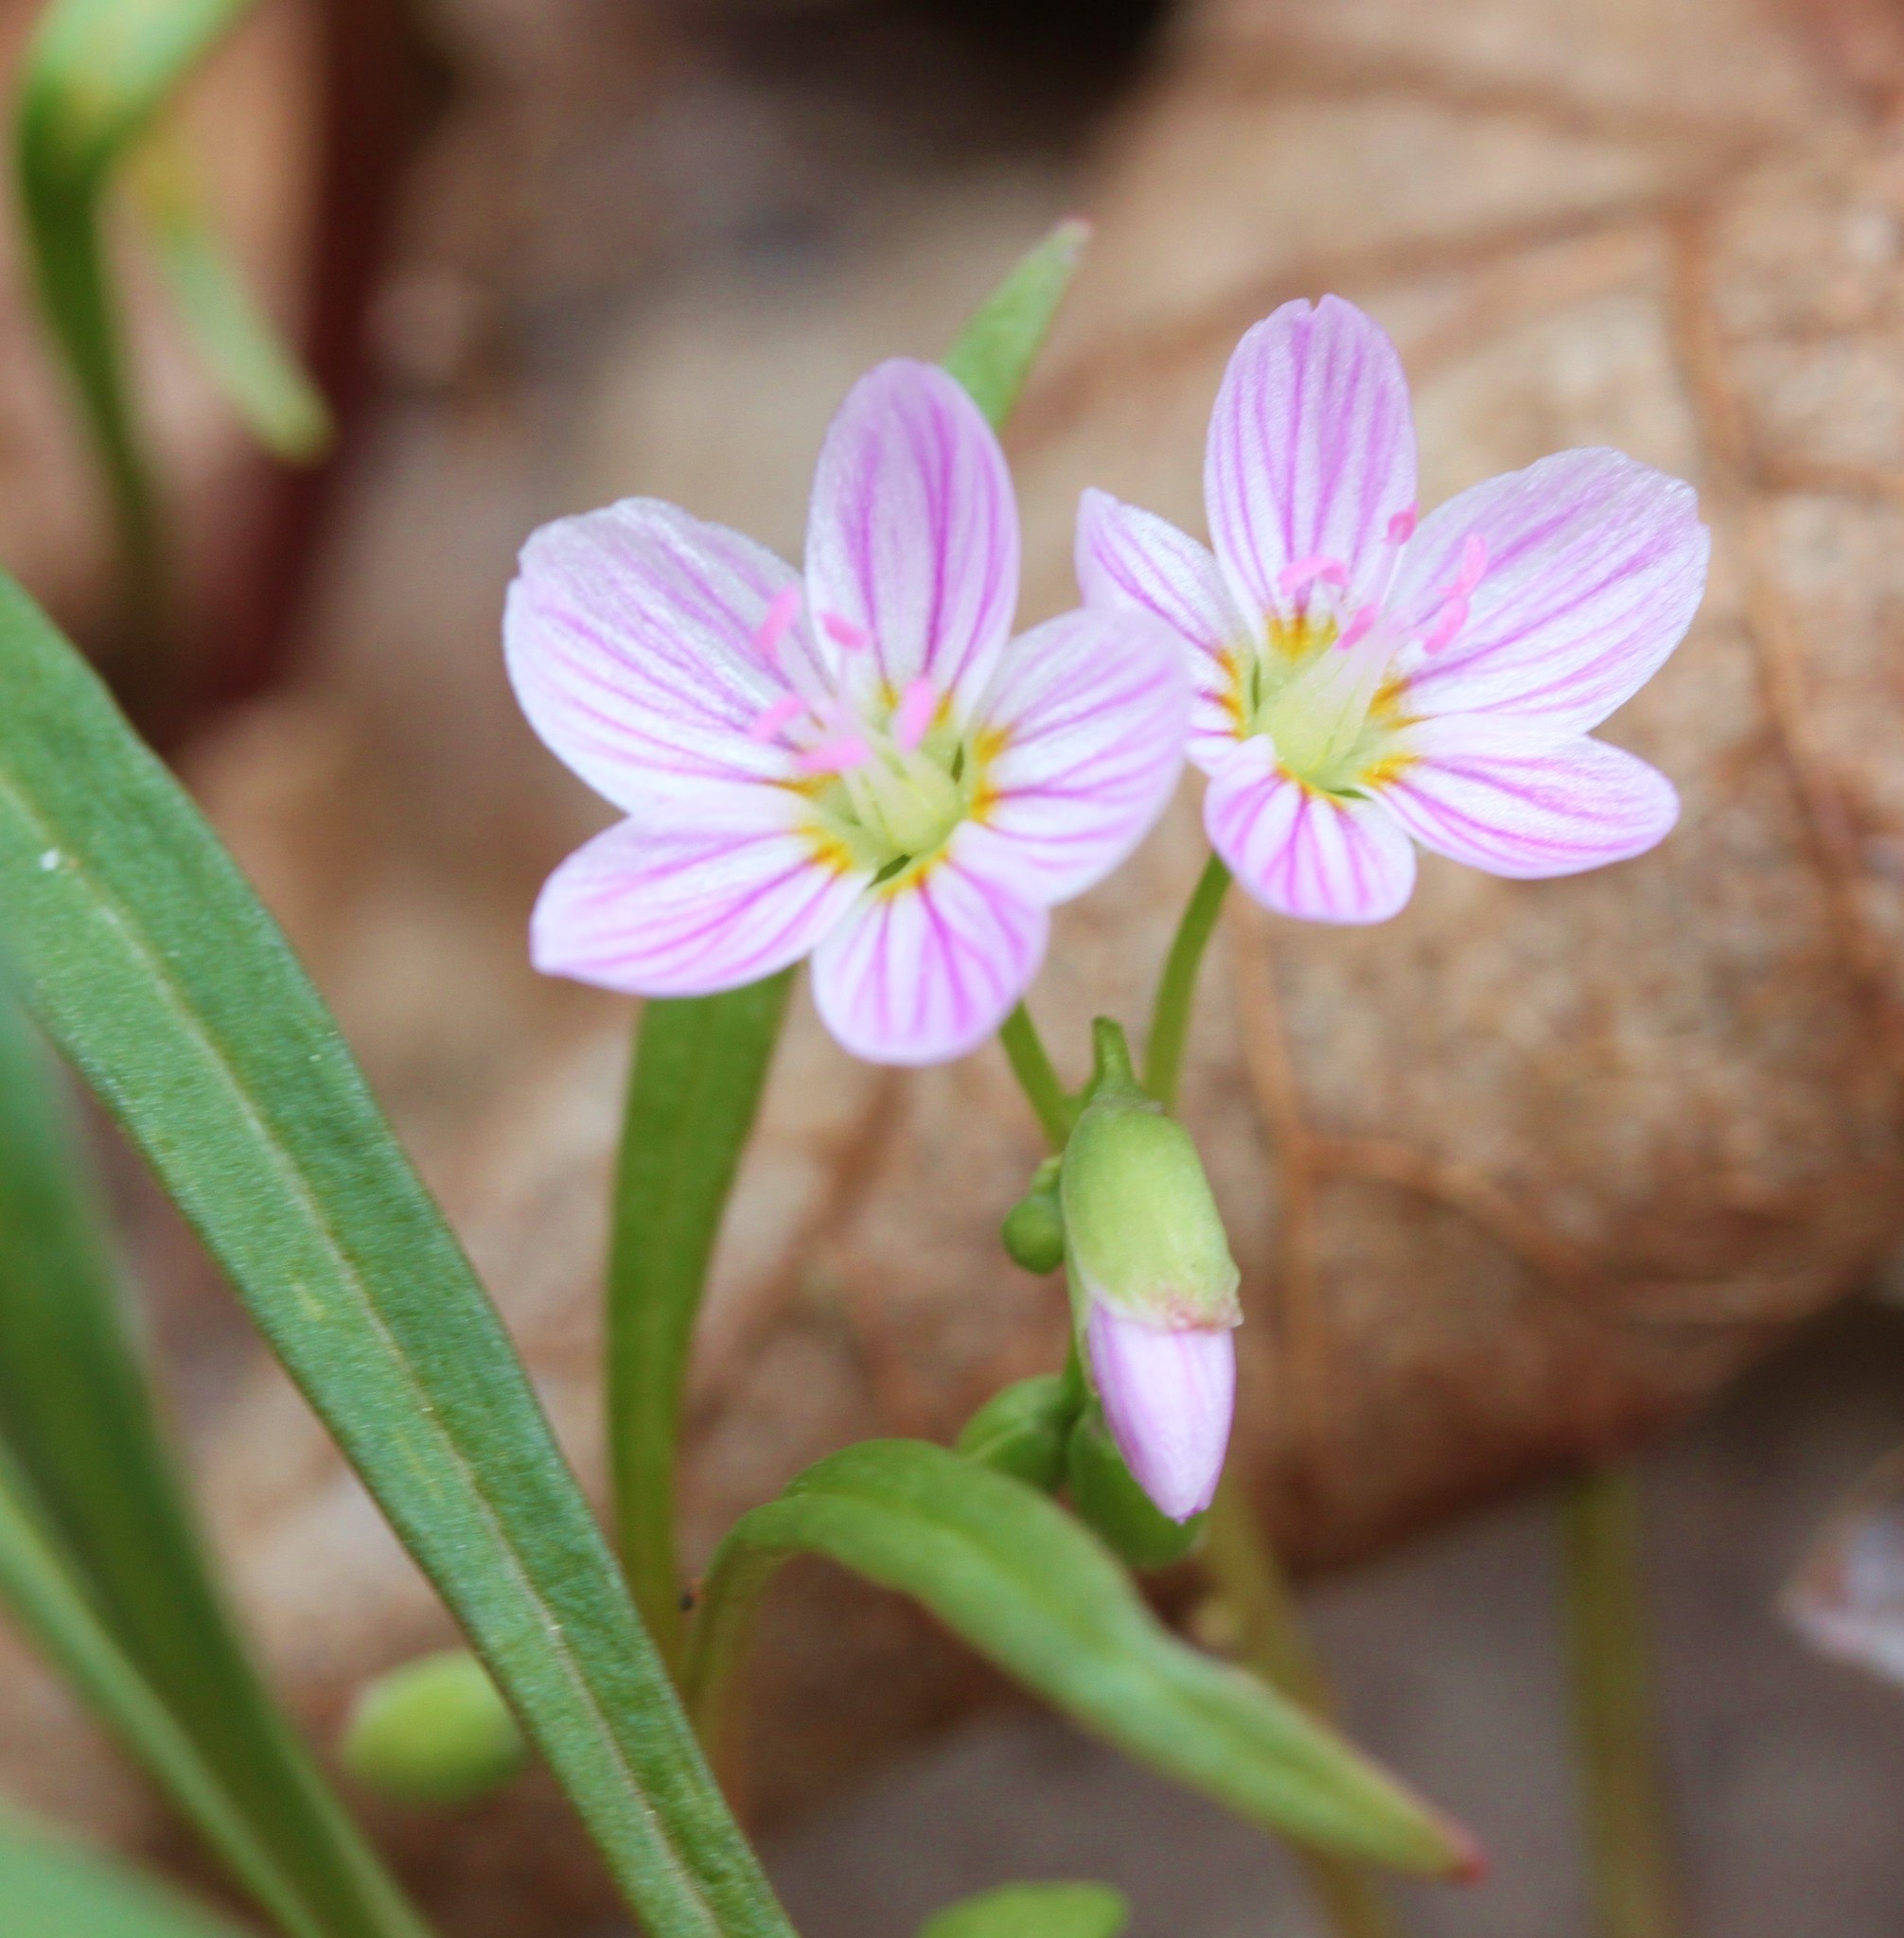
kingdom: Plantae
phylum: Tracheophyta
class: Magnoliopsida
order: Caryophyllales
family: Montiaceae
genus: Claytonia
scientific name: Claytonia virginica
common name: Virginia springbeauty
